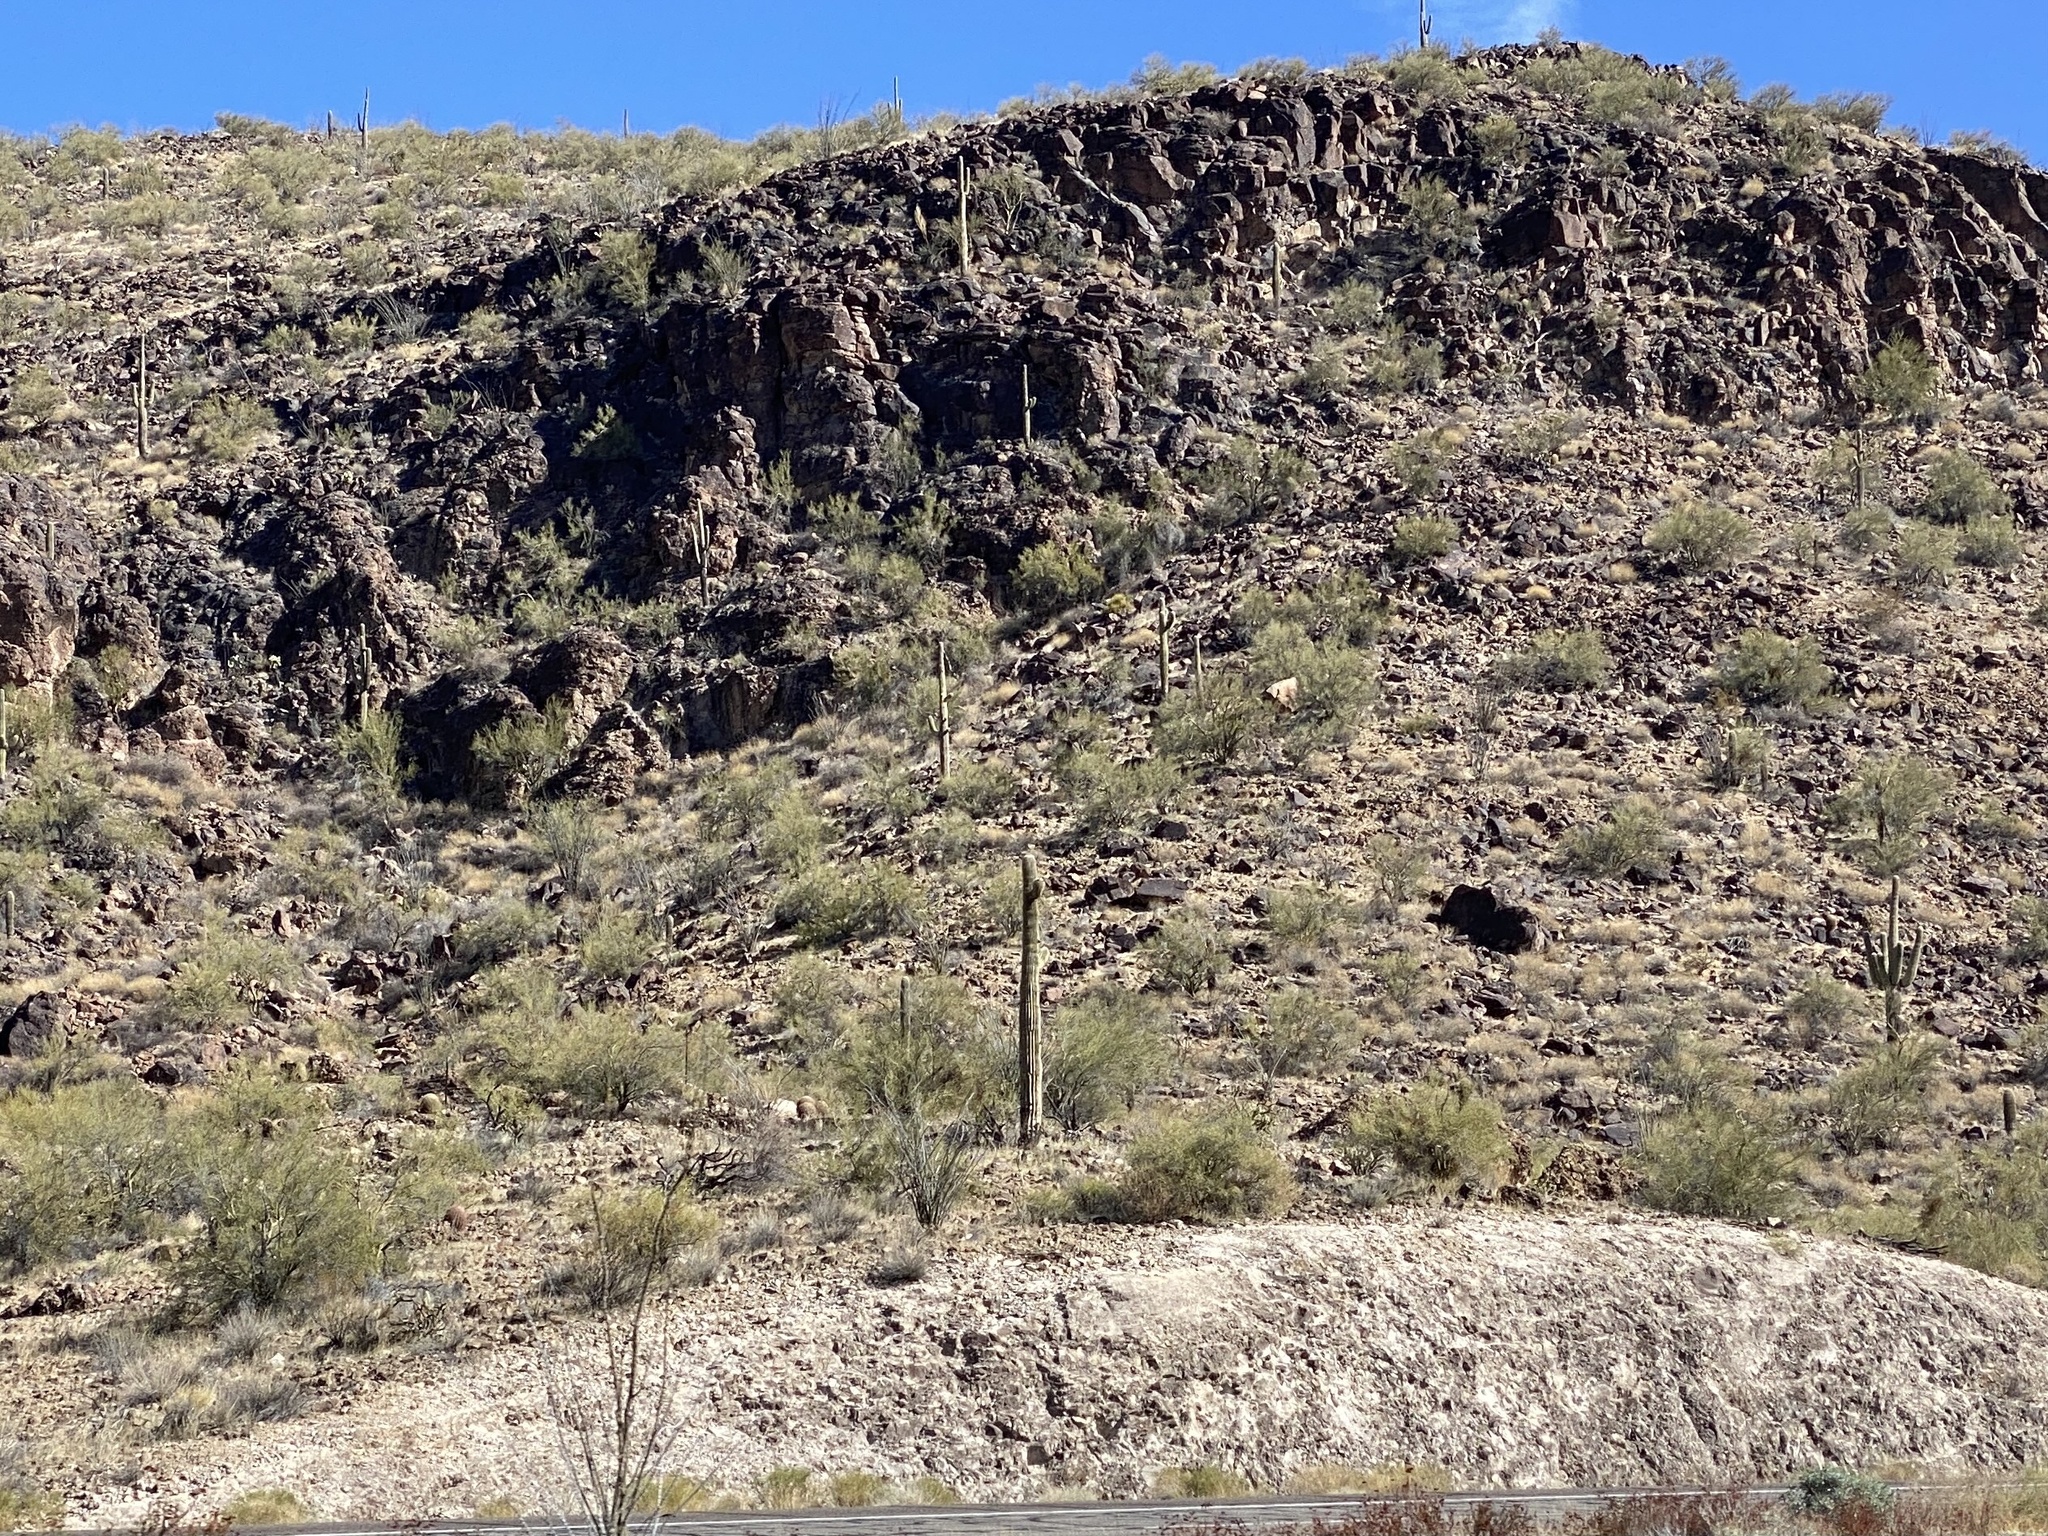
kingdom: Plantae
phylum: Tracheophyta
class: Magnoliopsida
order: Caryophyllales
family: Cactaceae
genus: Carnegiea
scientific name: Carnegiea gigantea
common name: Saguaro
